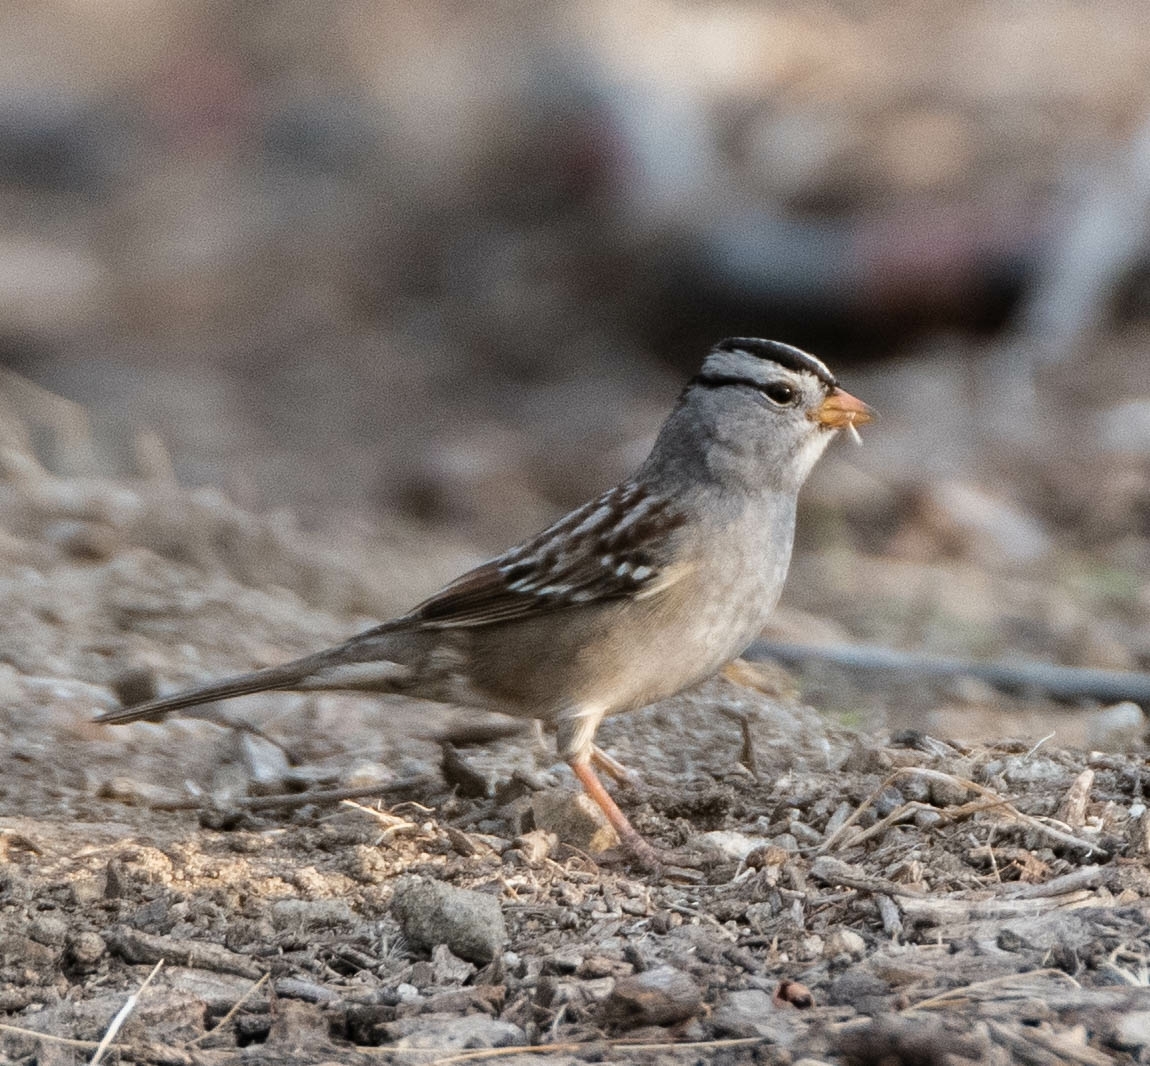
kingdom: Animalia
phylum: Chordata
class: Aves
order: Passeriformes
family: Passerellidae
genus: Zonotrichia
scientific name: Zonotrichia leucophrys
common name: White-crowned sparrow
